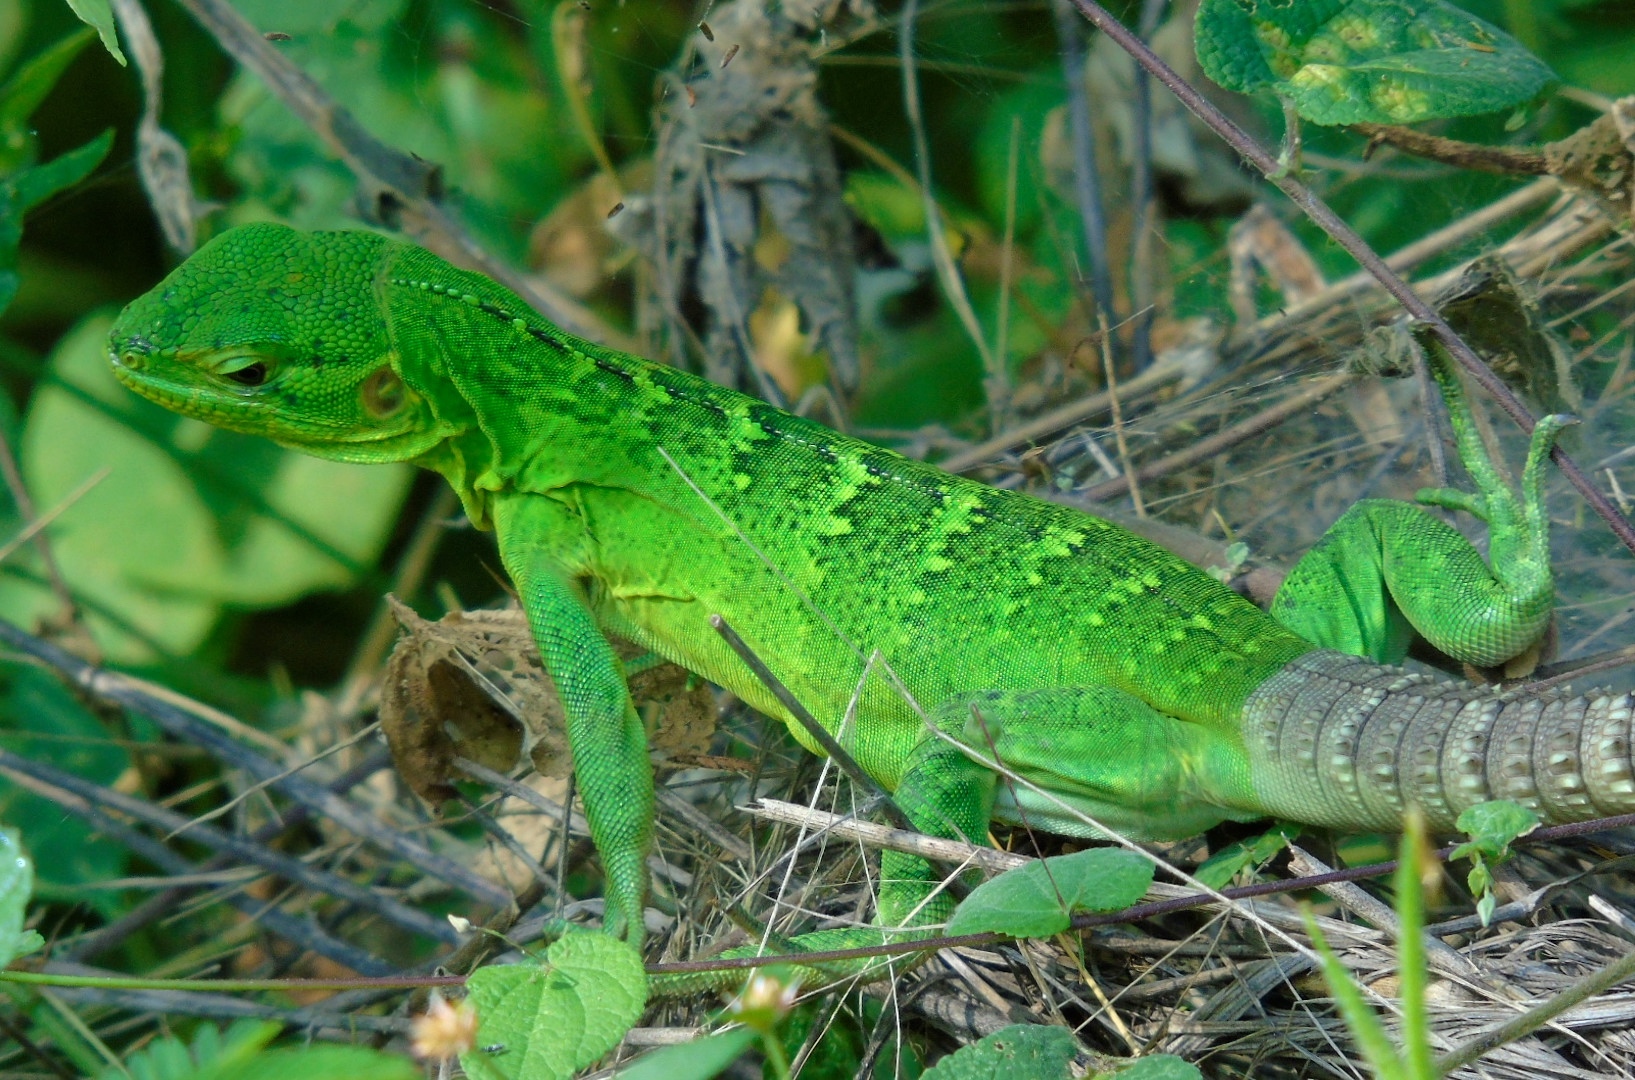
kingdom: Animalia
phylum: Chordata
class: Squamata
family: Iguanidae
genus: Ctenosaura
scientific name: Ctenosaura pectinata
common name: Guerreran spiny-tailed iguana
